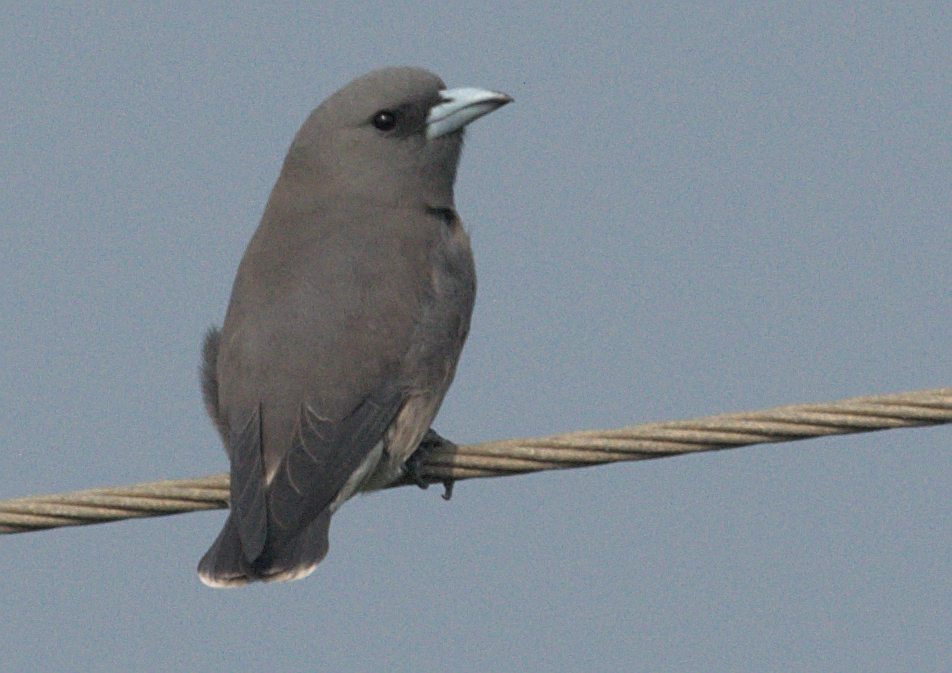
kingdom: Animalia
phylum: Chordata
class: Aves
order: Passeriformes
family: Artamidae
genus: Artamus
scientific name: Artamus fuscus
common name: Ashy woodswallow
